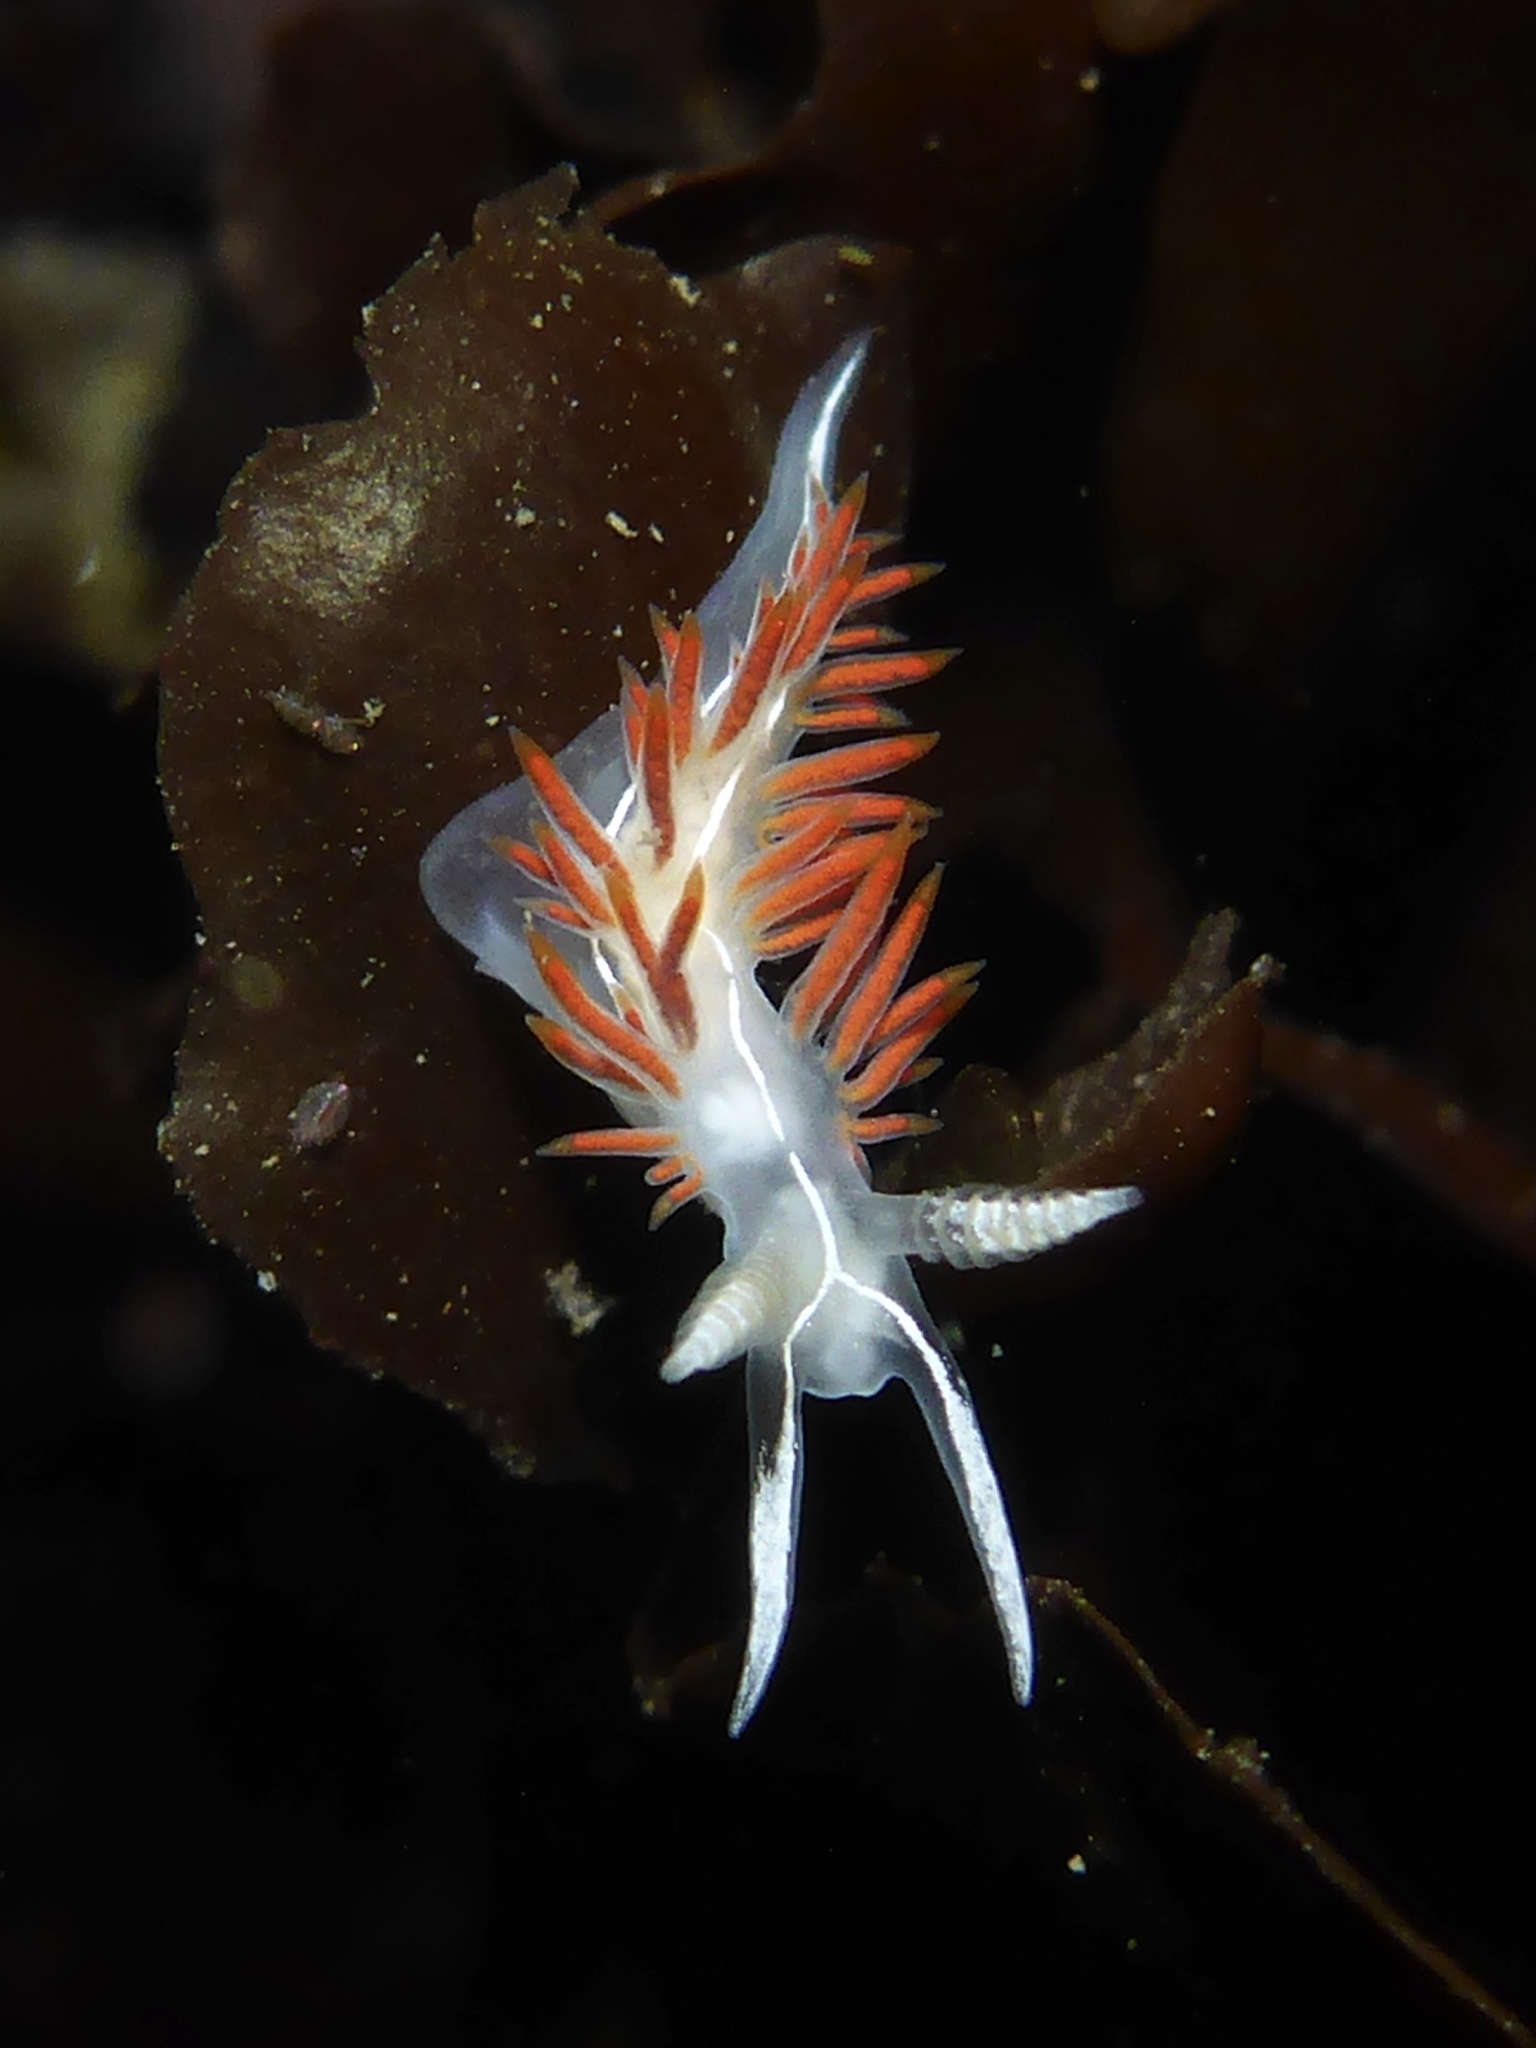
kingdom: Animalia
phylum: Mollusca
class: Gastropoda
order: Nudibranchia
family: Coryphellidae
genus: Coryphella
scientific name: Coryphella trilineata
